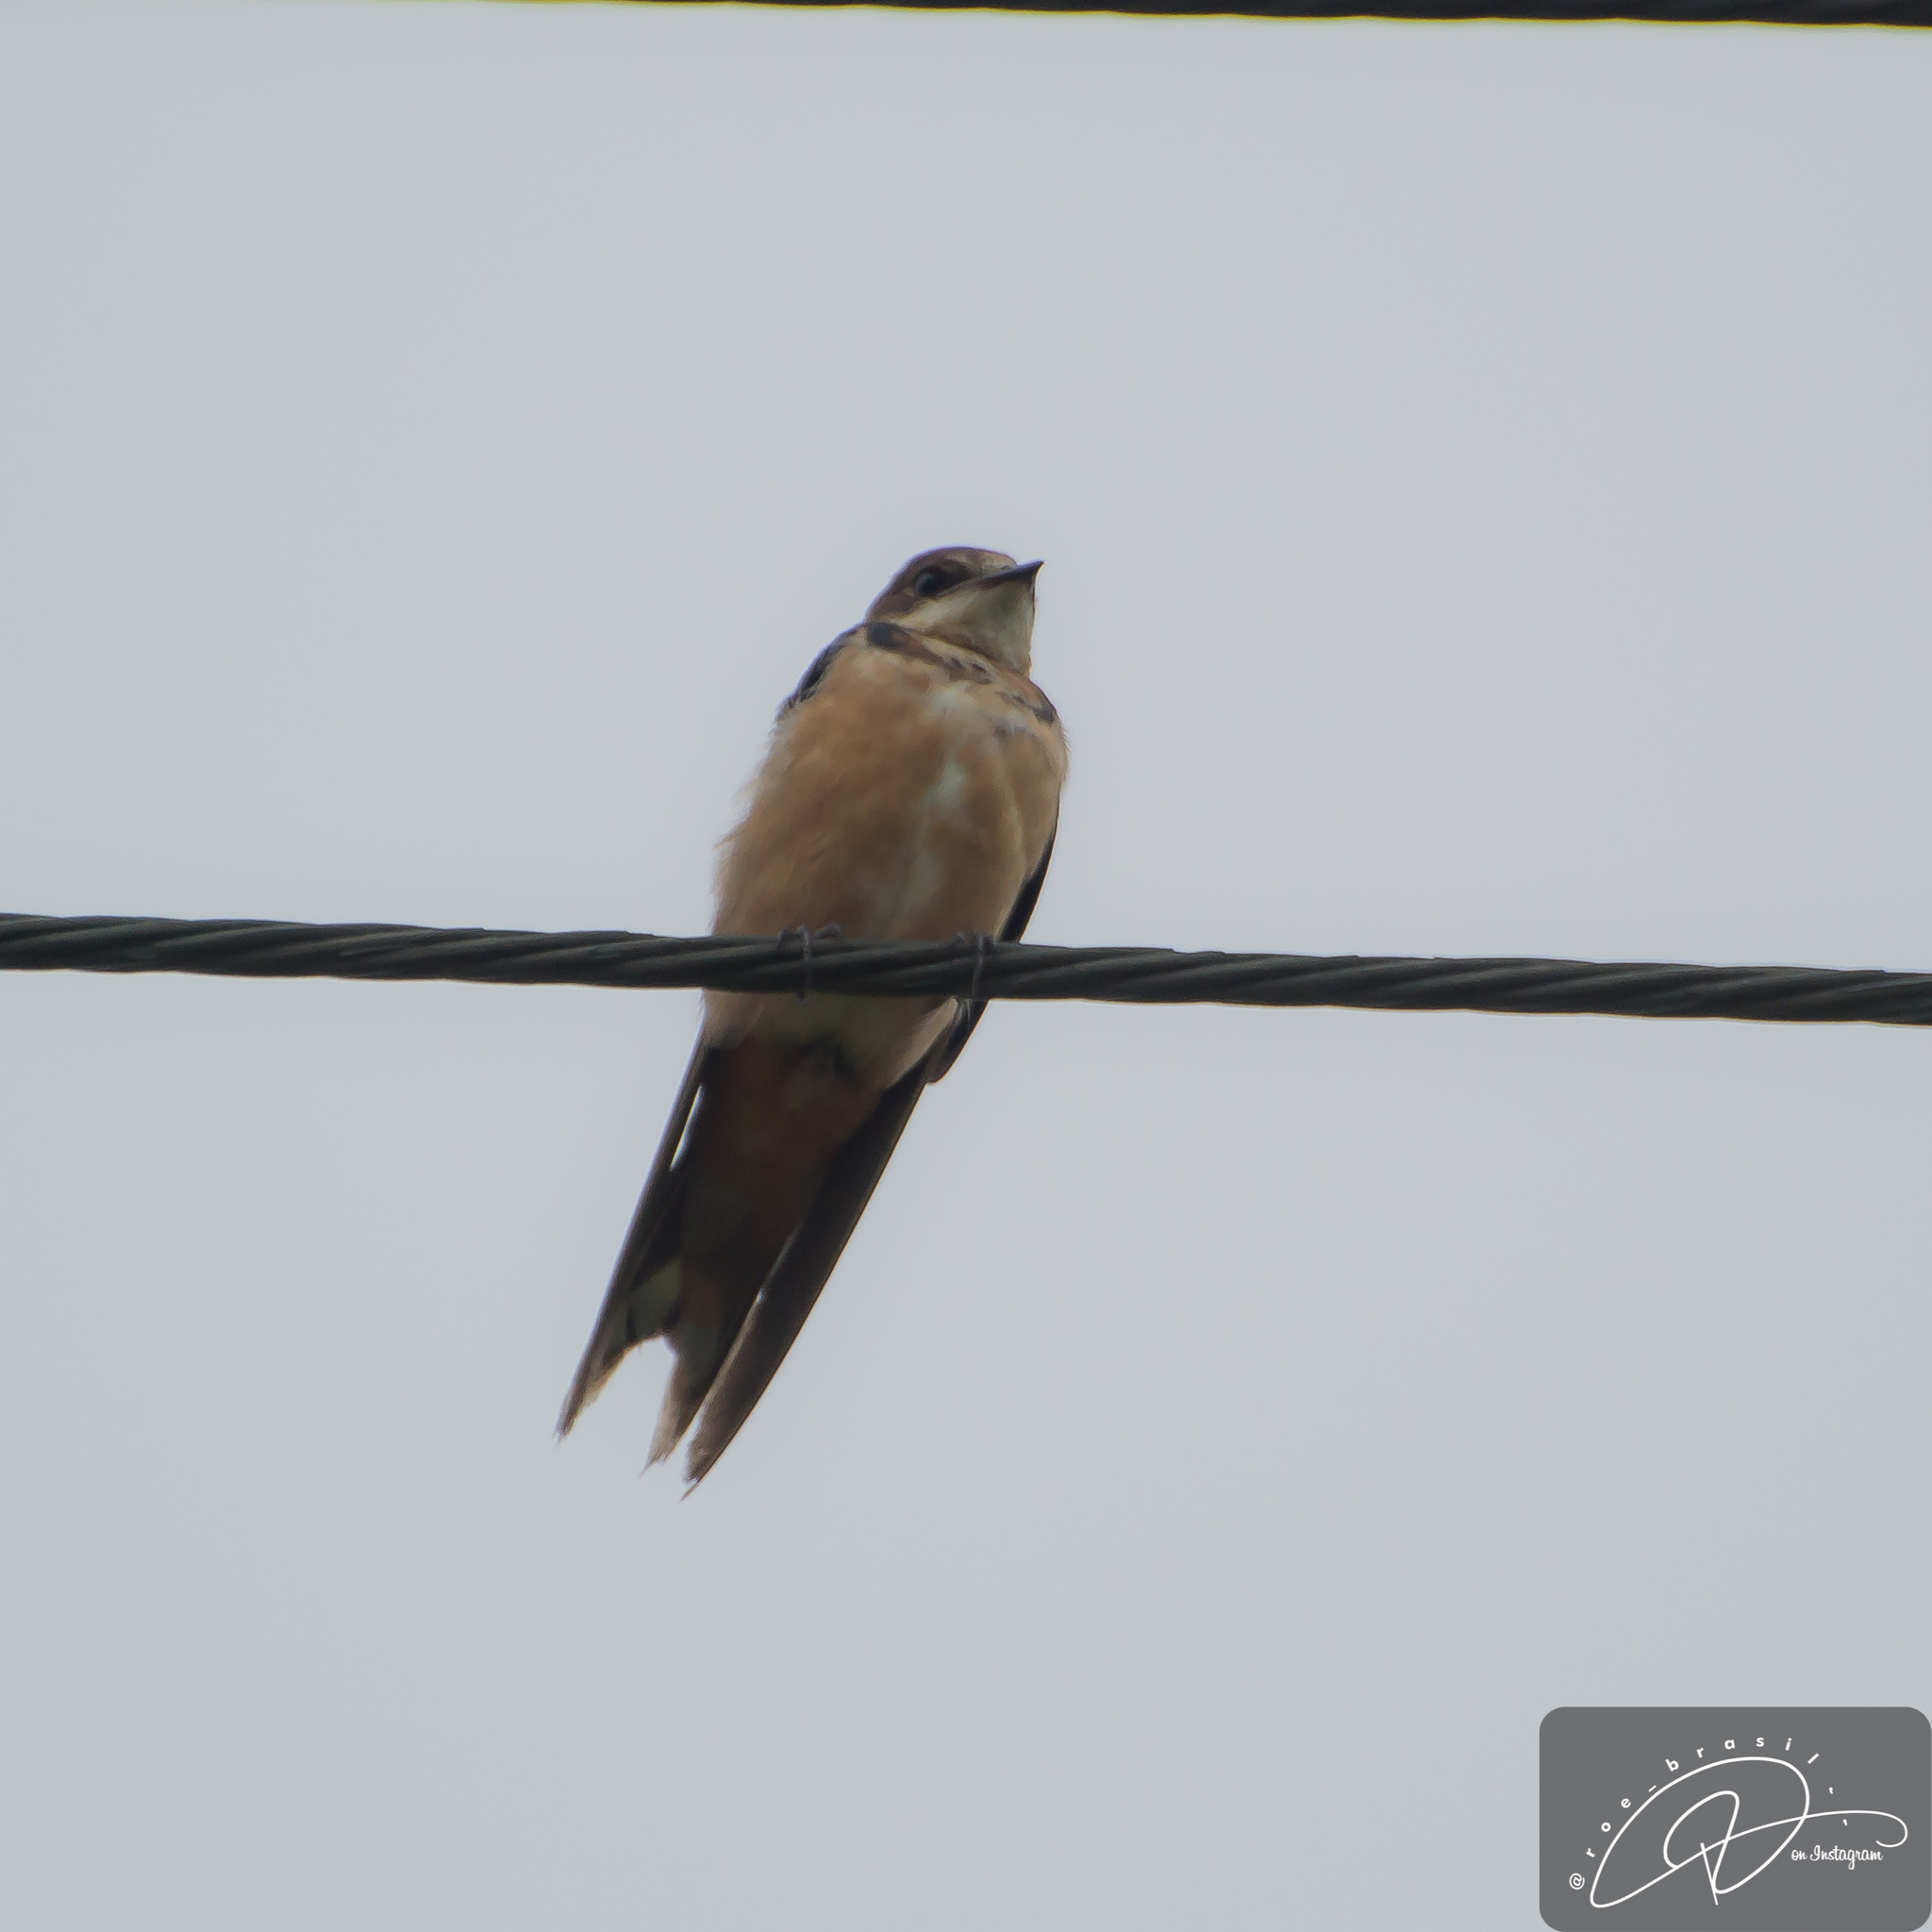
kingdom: Animalia
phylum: Chordata
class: Aves
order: Passeriformes
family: Hirundinidae
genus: Hirundo
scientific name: Hirundo rustica
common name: Barn swallow
